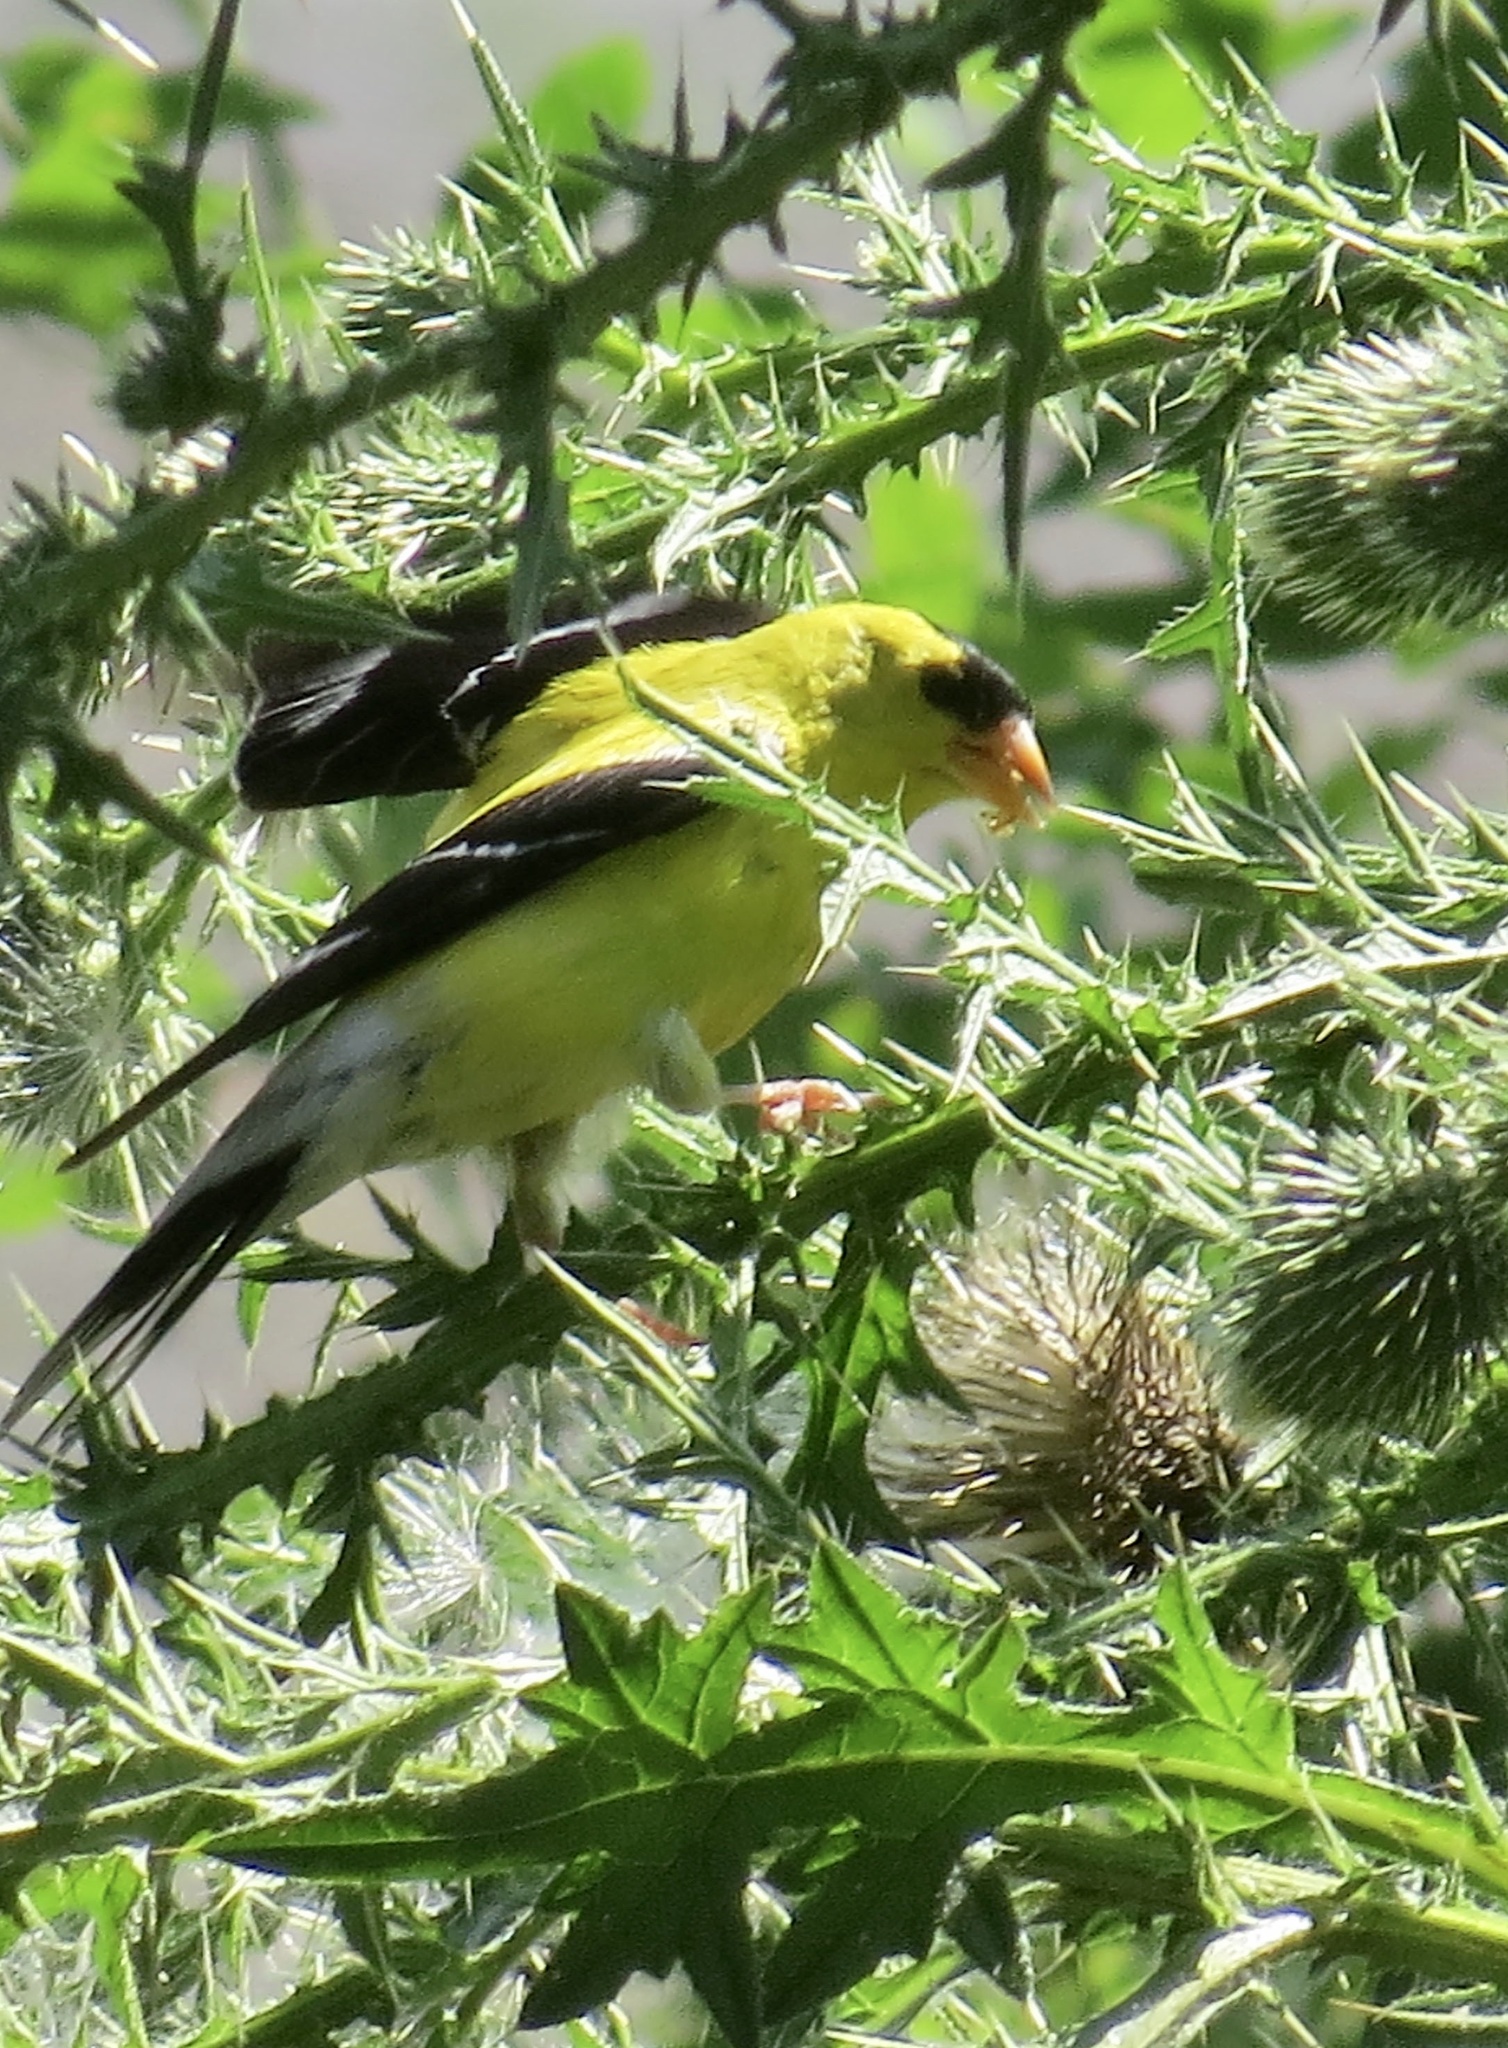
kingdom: Animalia
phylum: Chordata
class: Aves
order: Passeriformes
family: Fringillidae
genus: Spinus
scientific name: Spinus tristis
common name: American goldfinch
